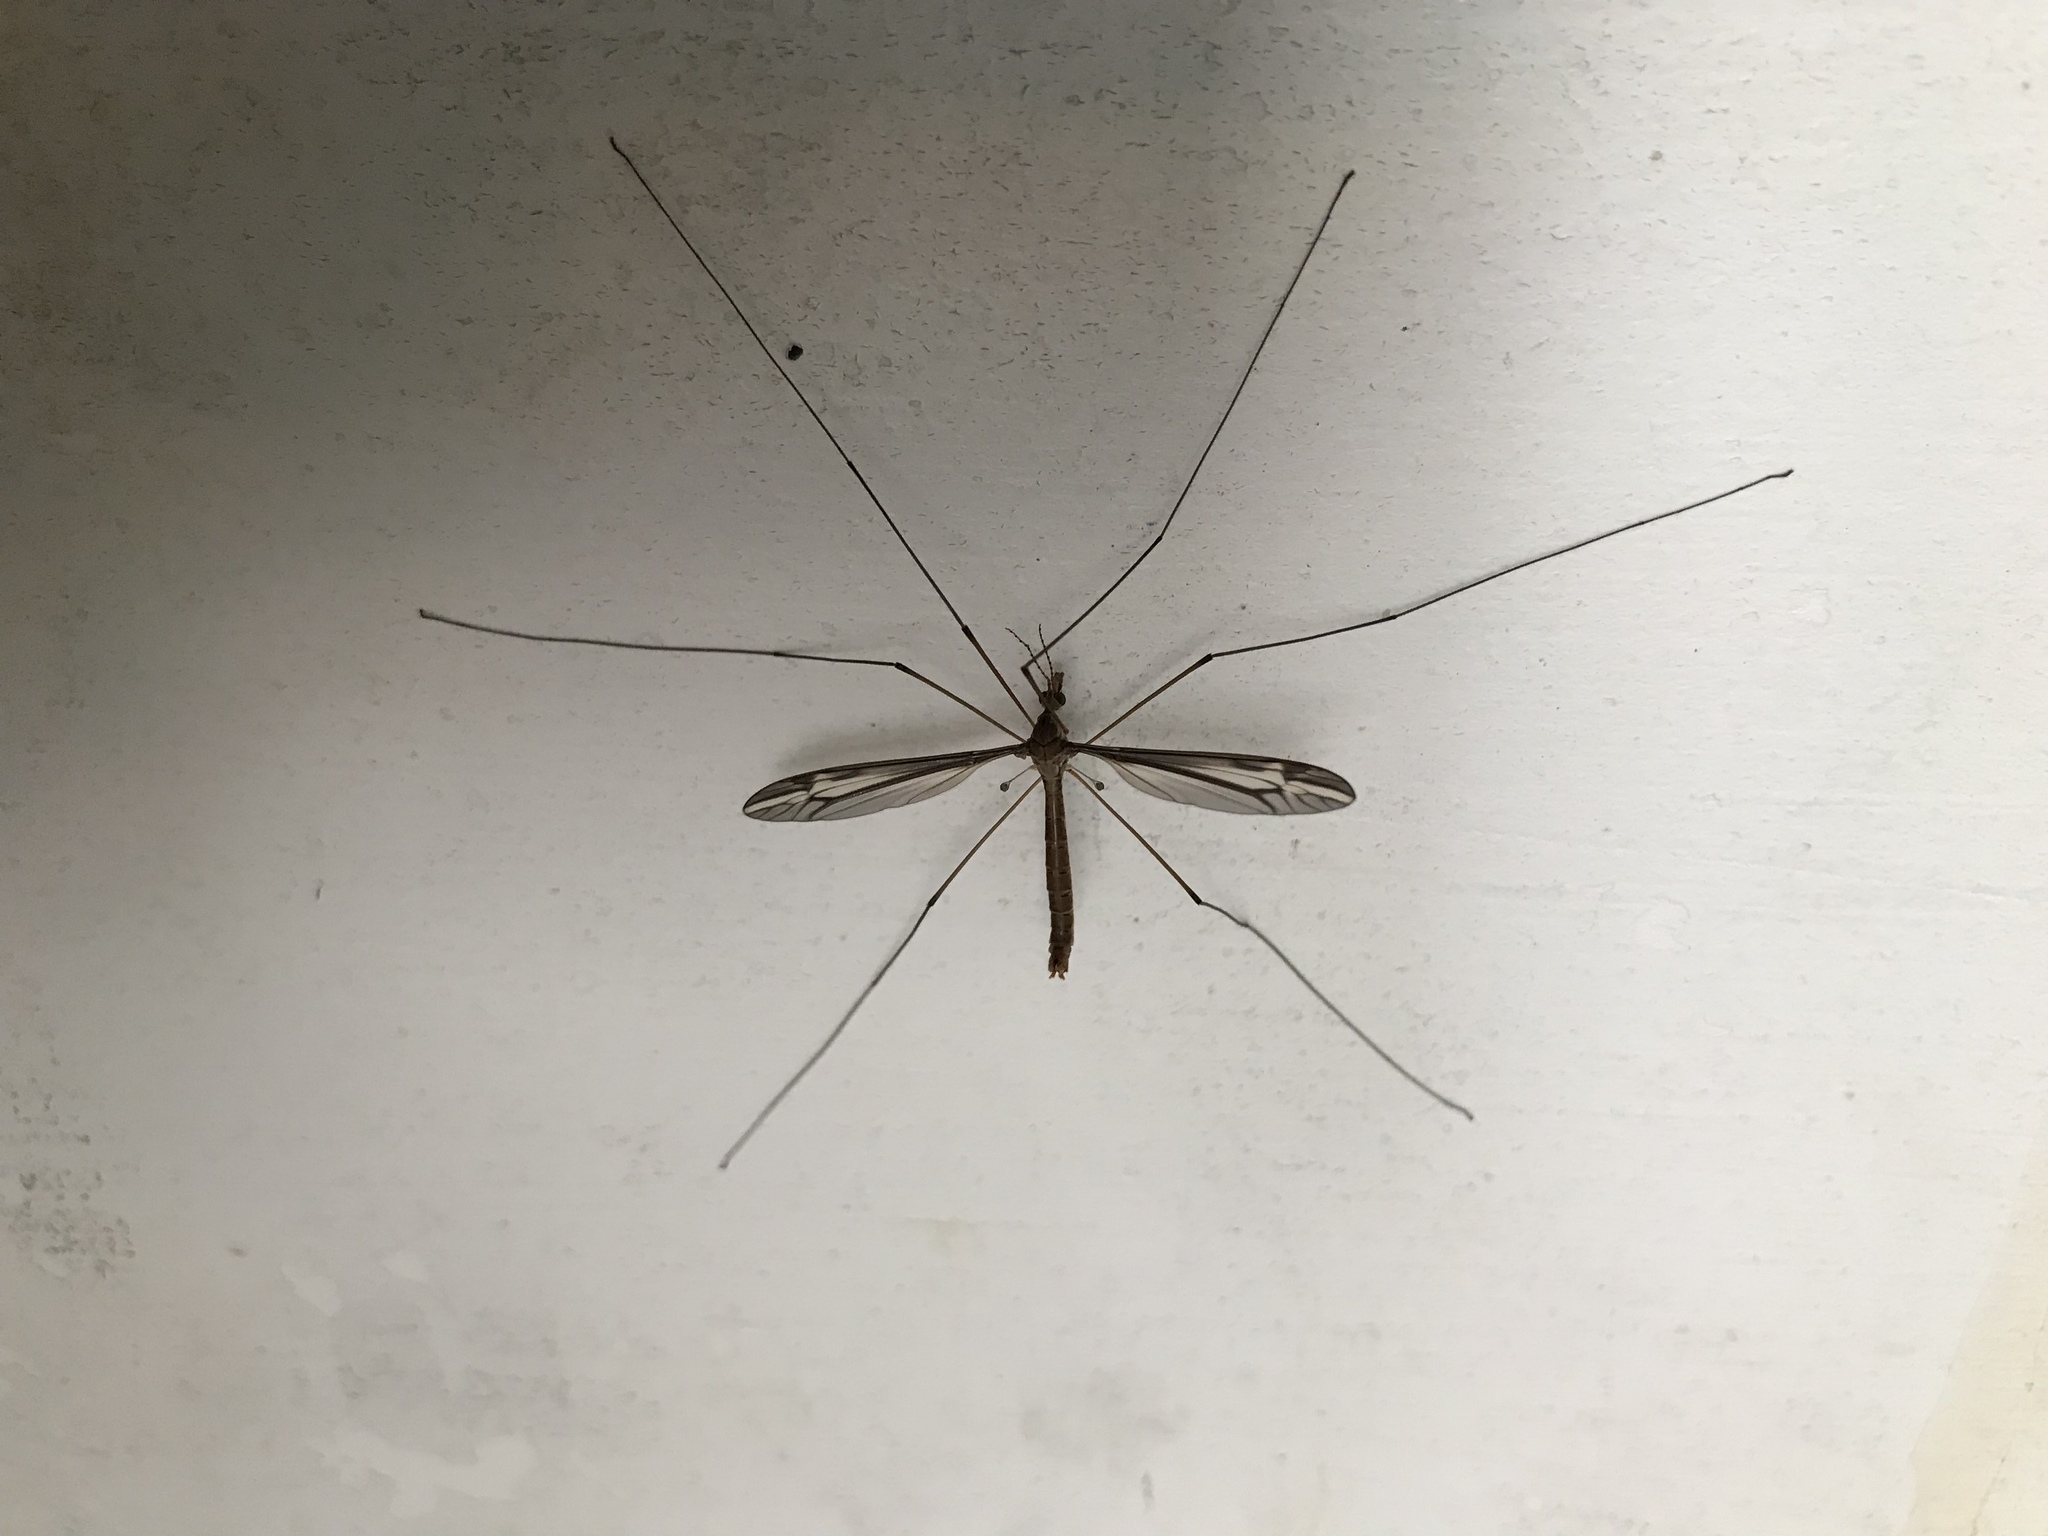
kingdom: Animalia
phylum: Arthropoda
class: Insecta
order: Diptera
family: Tipulidae
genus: Tipula
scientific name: Tipula
